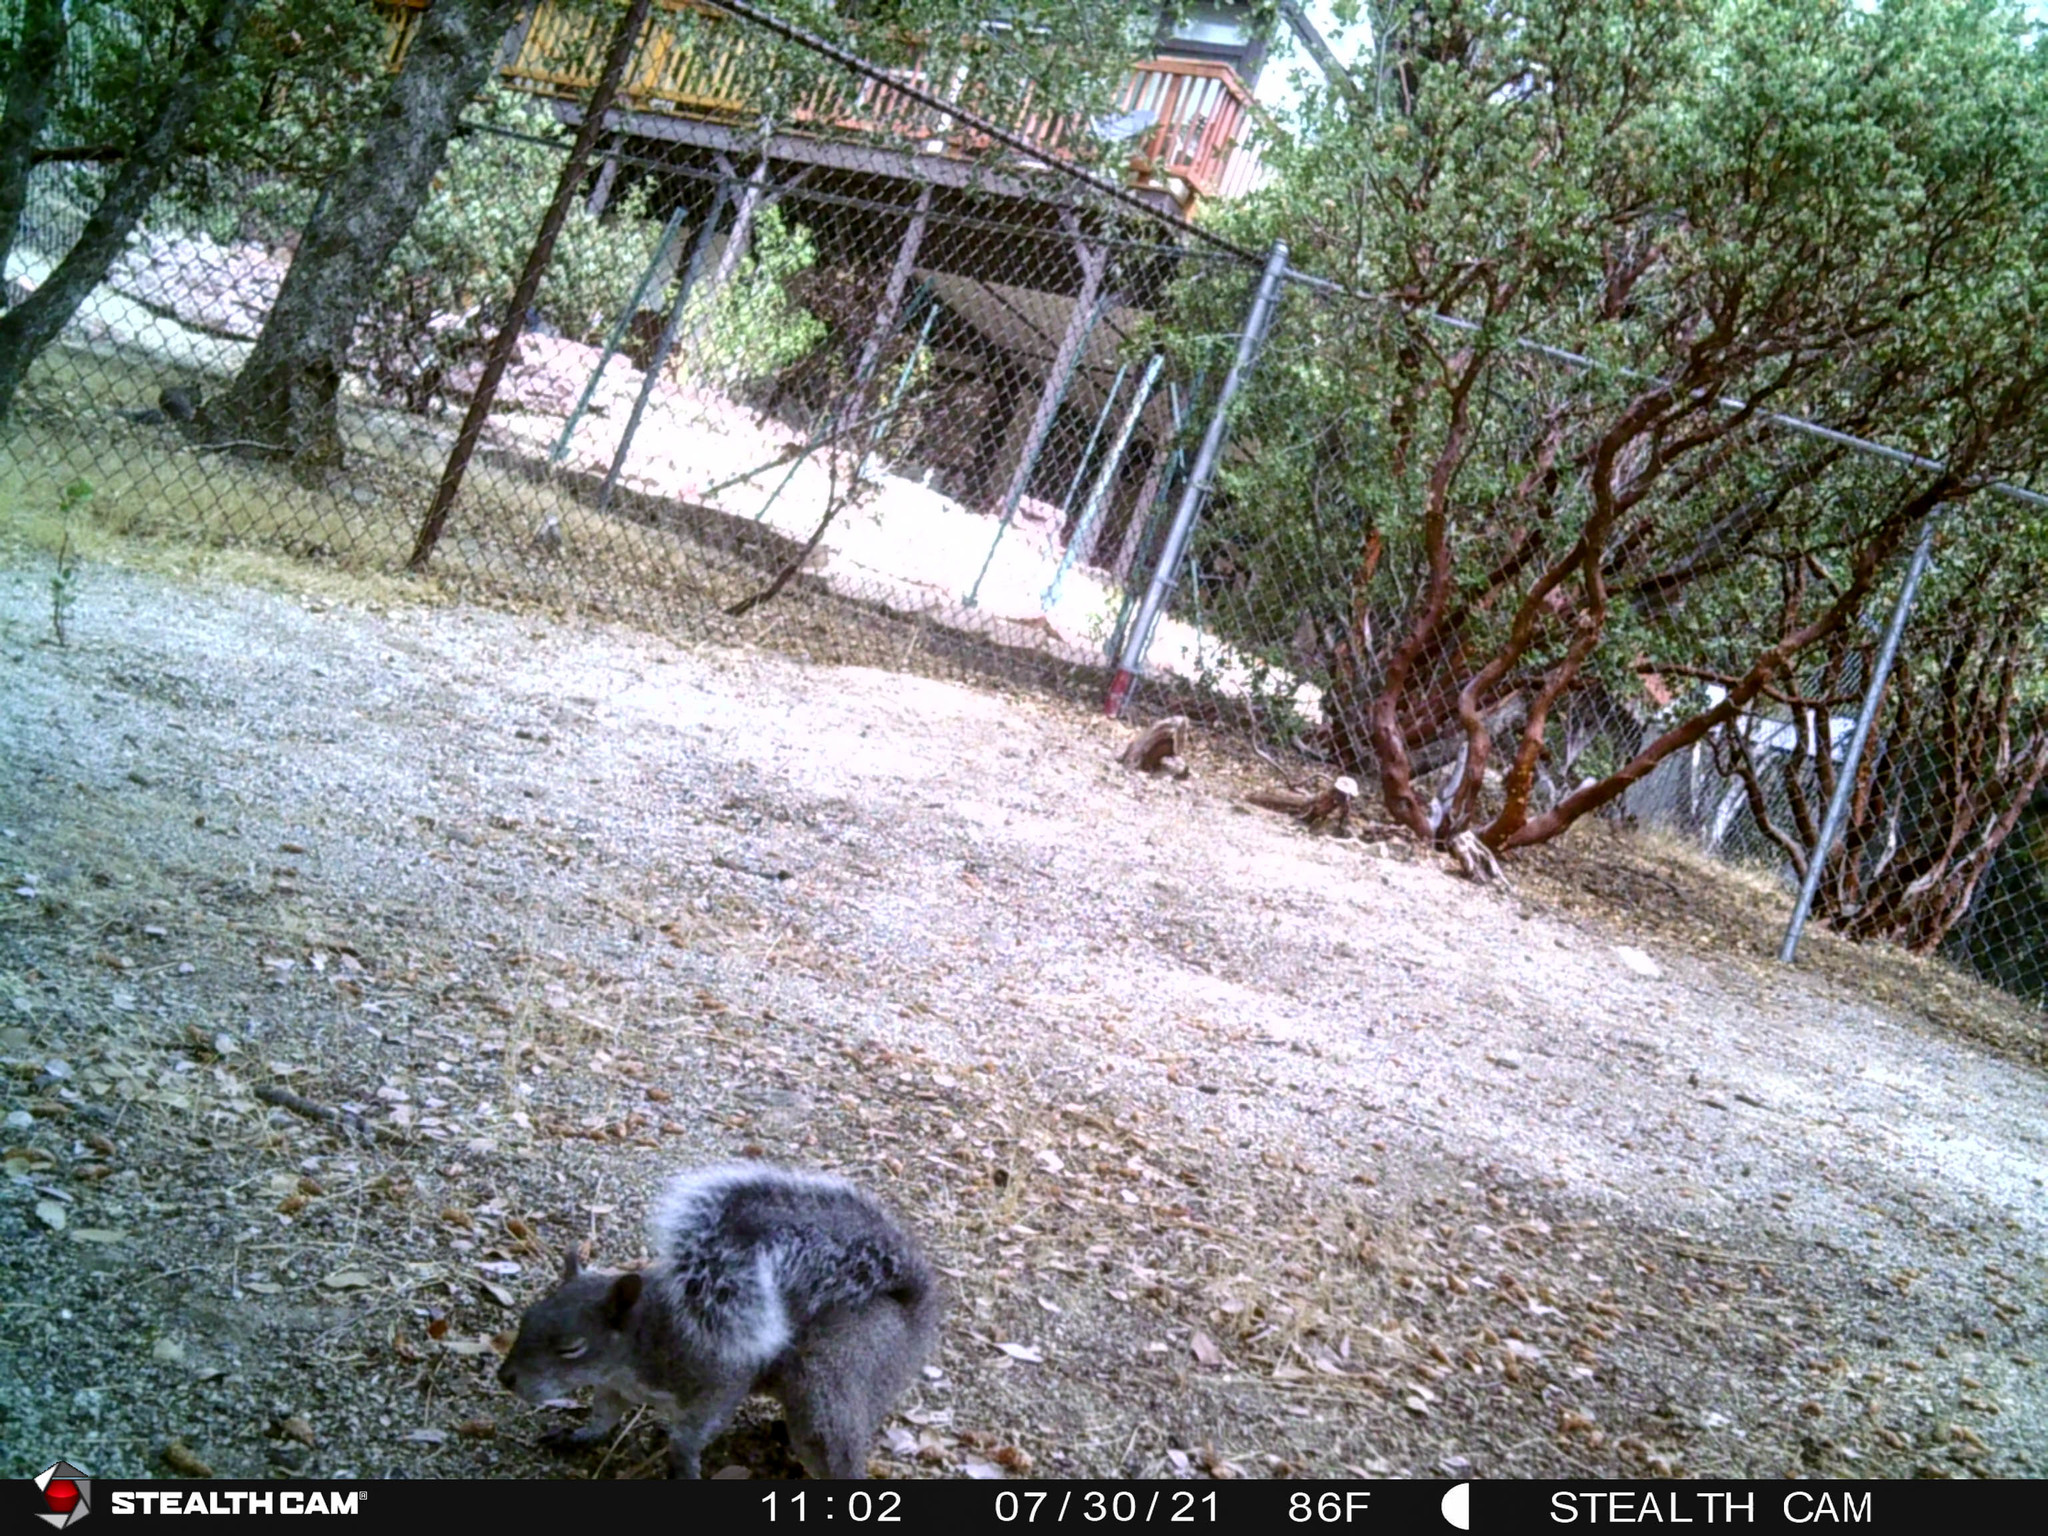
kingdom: Animalia
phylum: Chordata
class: Mammalia
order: Rodentia
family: Sciuridae
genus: Sciurus
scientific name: Sciurus griseus
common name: Western gray squirrel
